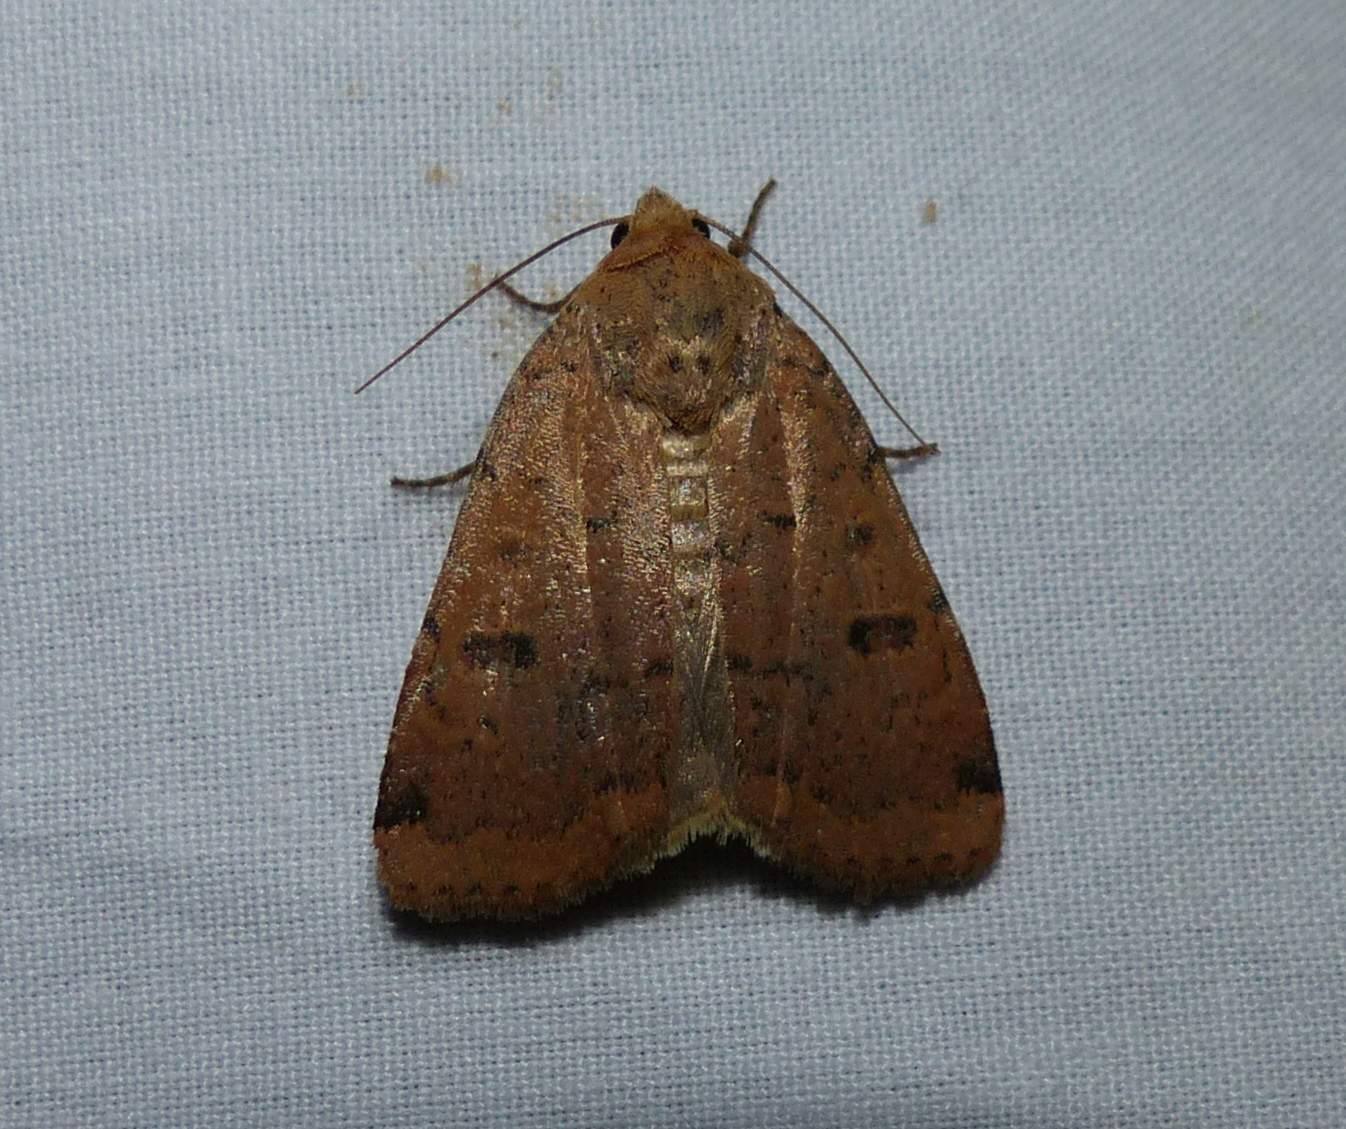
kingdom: Animalia
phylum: Arthropoda
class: Insecta
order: Lepidoptera
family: Noctuidae
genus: Abagrotis
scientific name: Abagrotis cupida
